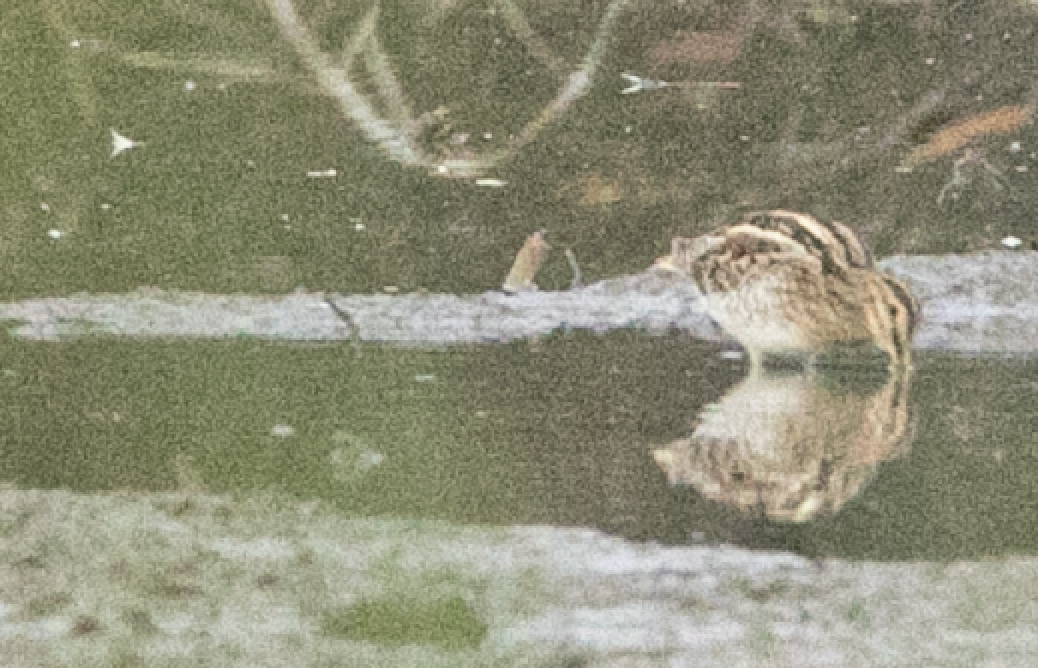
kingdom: Animalia
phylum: Chordata
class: Aves
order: Charadriiformes
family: Scolopacidae
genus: Gallinago
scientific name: Gallinago gallinago
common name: Common snipe
